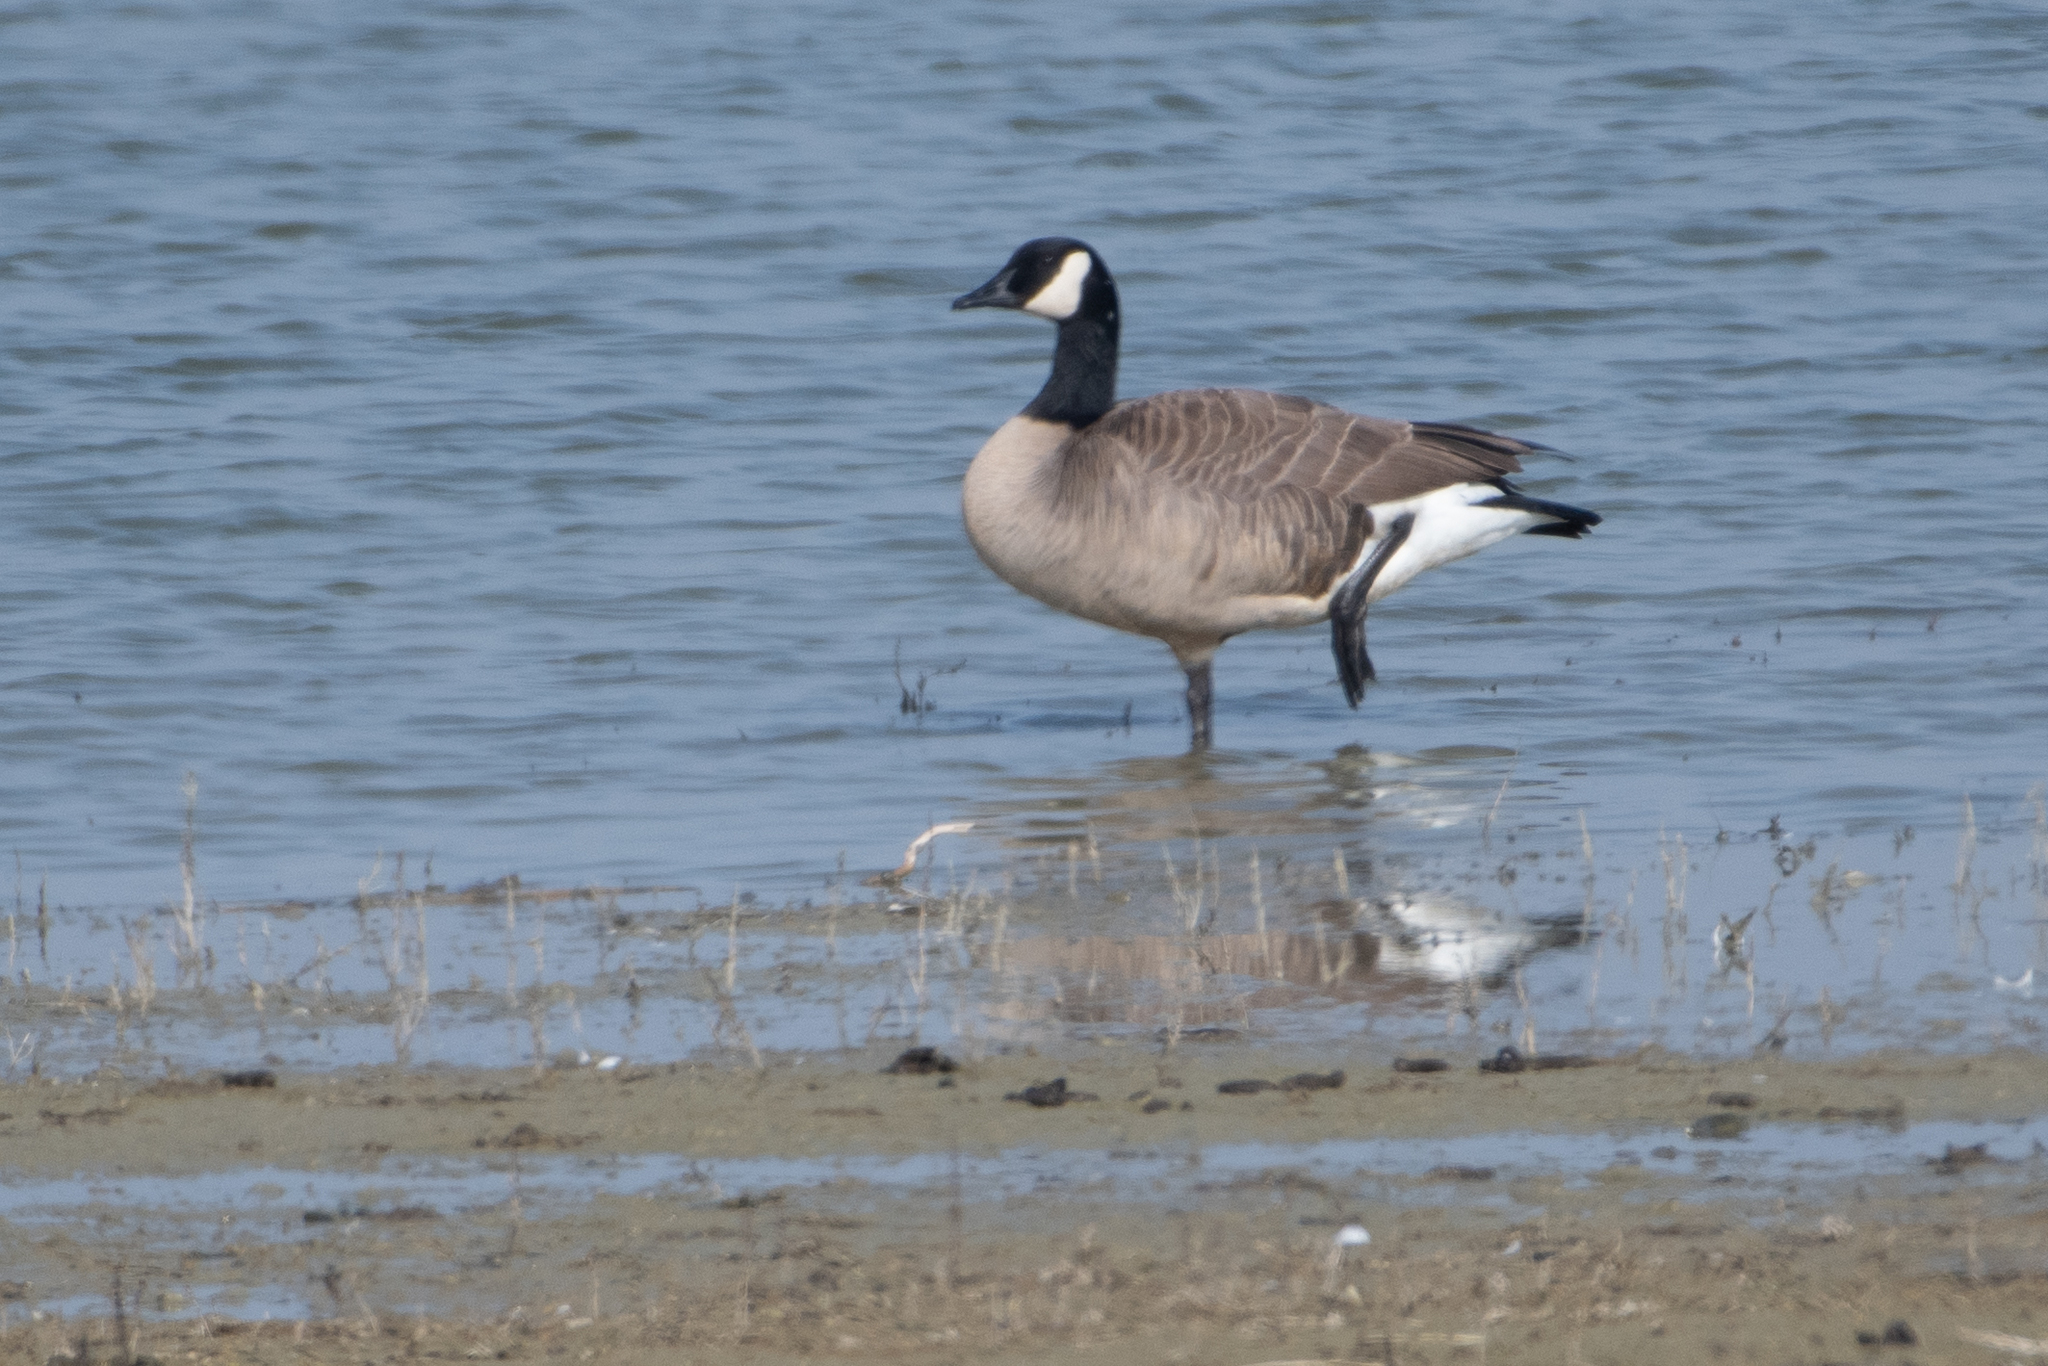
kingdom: Animalia
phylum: Chordata
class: Aves
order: Anseriformes
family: Anatidae
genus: Branta
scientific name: Branta canadensis
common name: Canada goose
